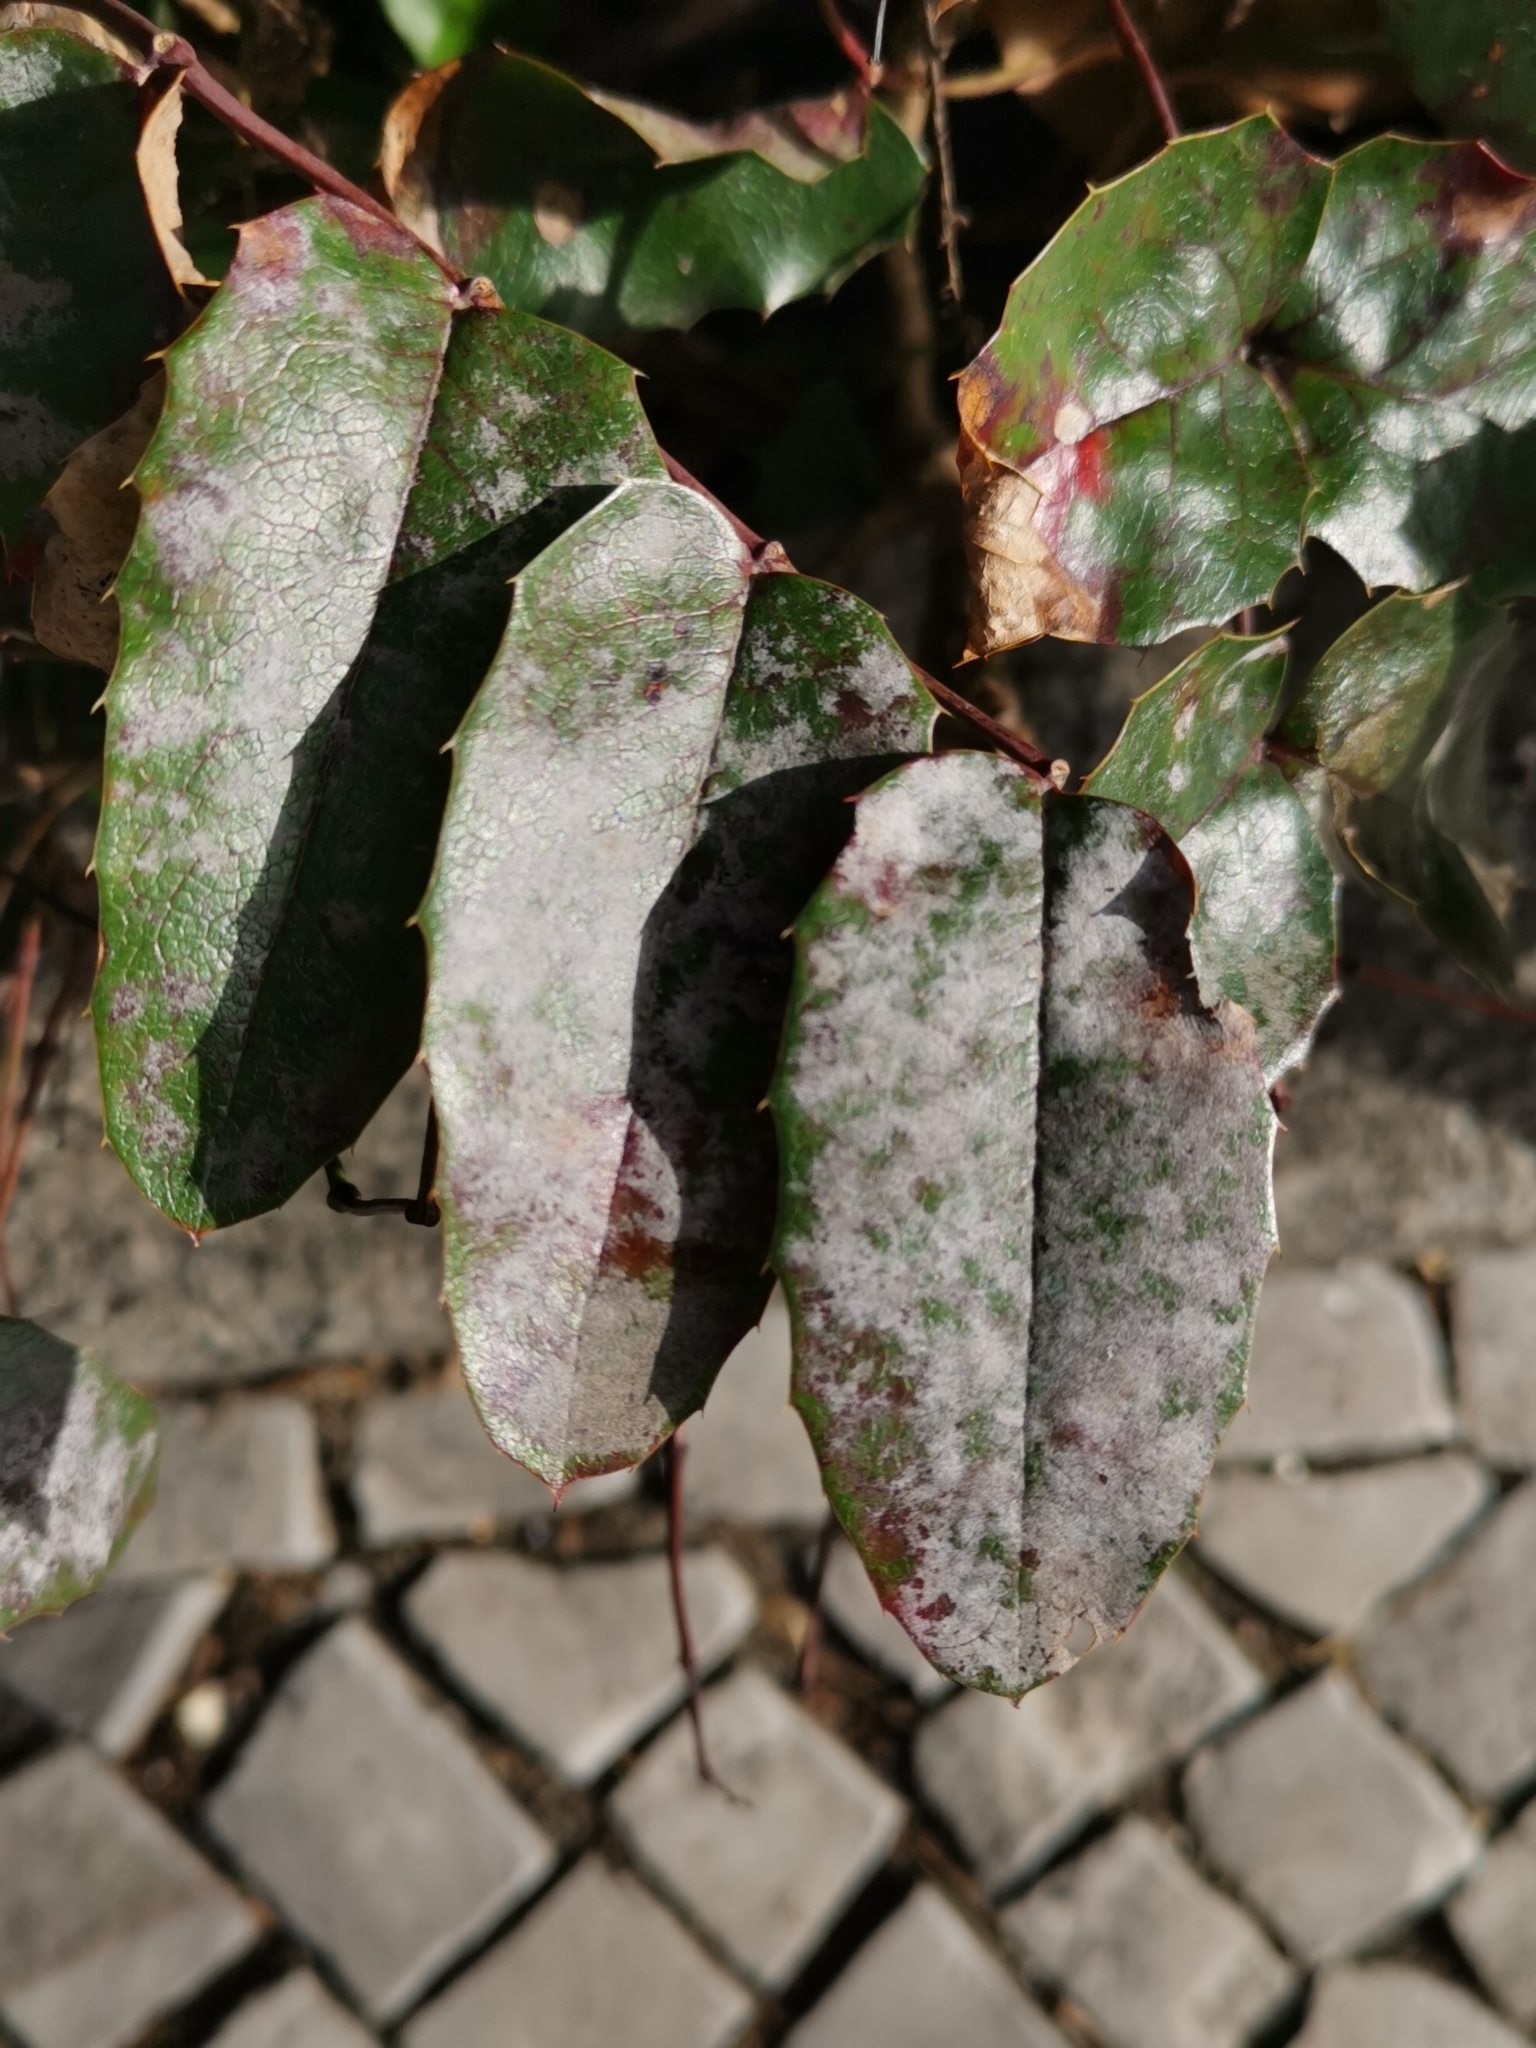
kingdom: Fungi
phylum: Ascomycota
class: Leotiomycetes
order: Helotiales
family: Erysiphaceae
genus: Erysiphe
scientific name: Erysiphe berberidis
